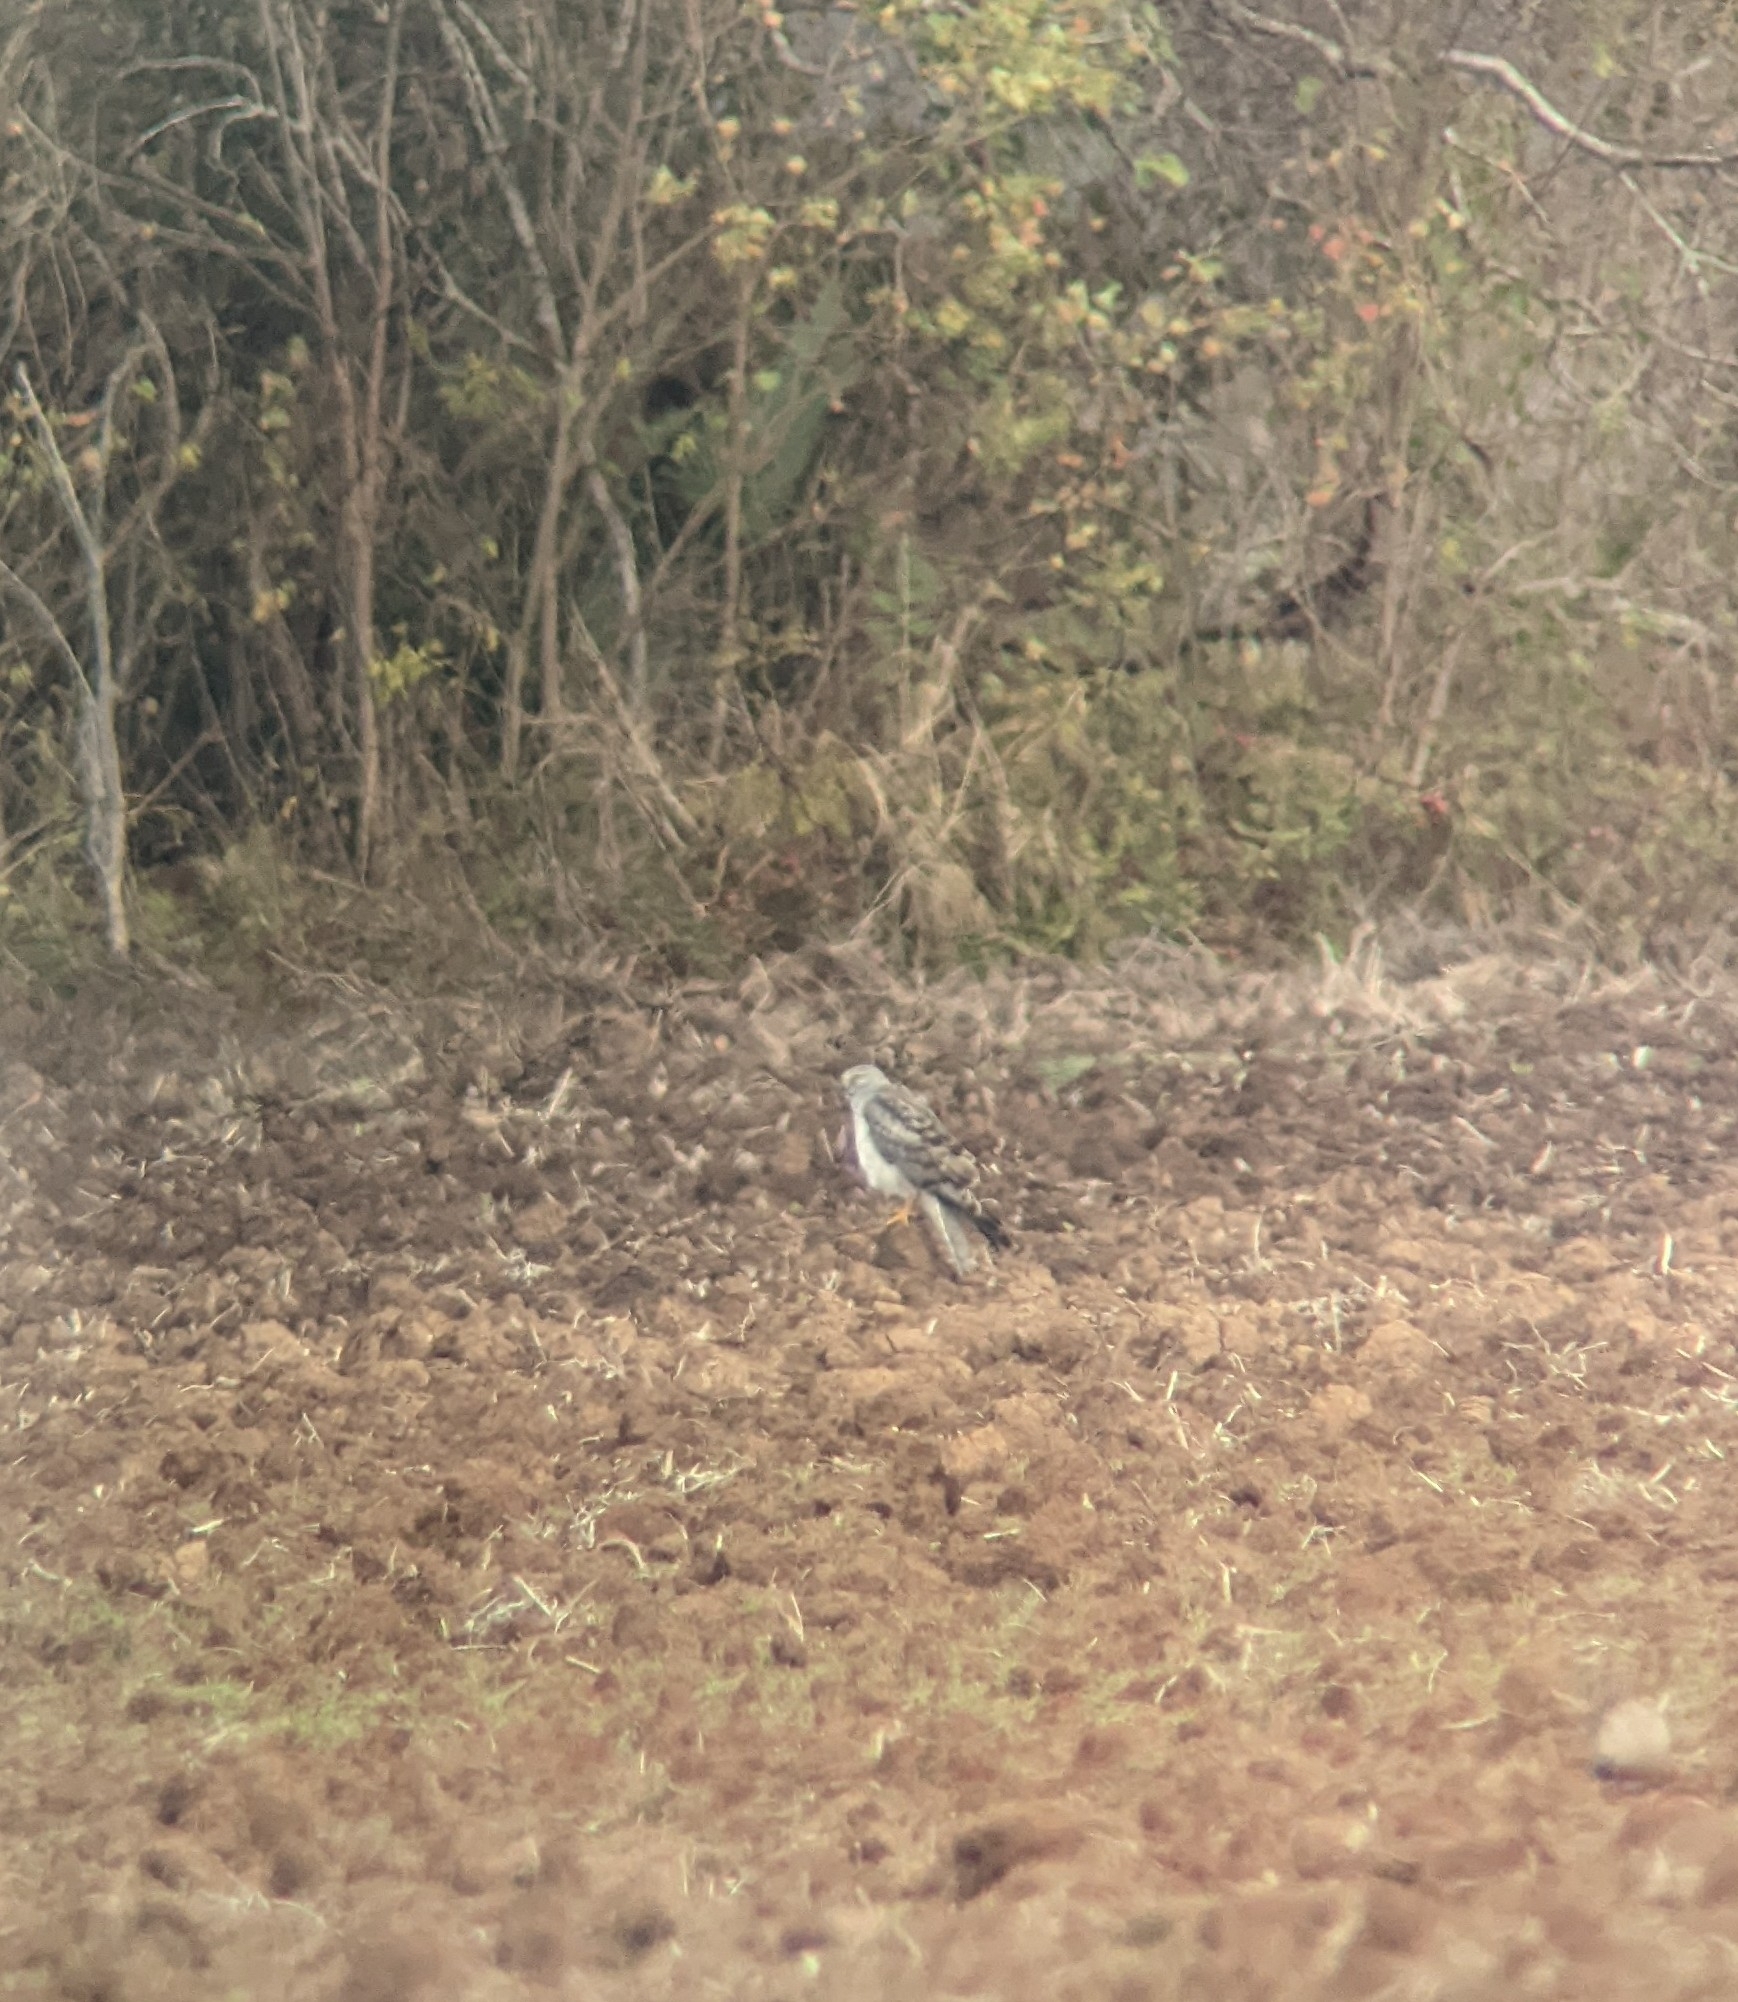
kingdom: Animalia
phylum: Chordata
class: Aves
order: Accipitriformes
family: Accipitridae
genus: Circus
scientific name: Circus cyaneus
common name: Hen harrier
